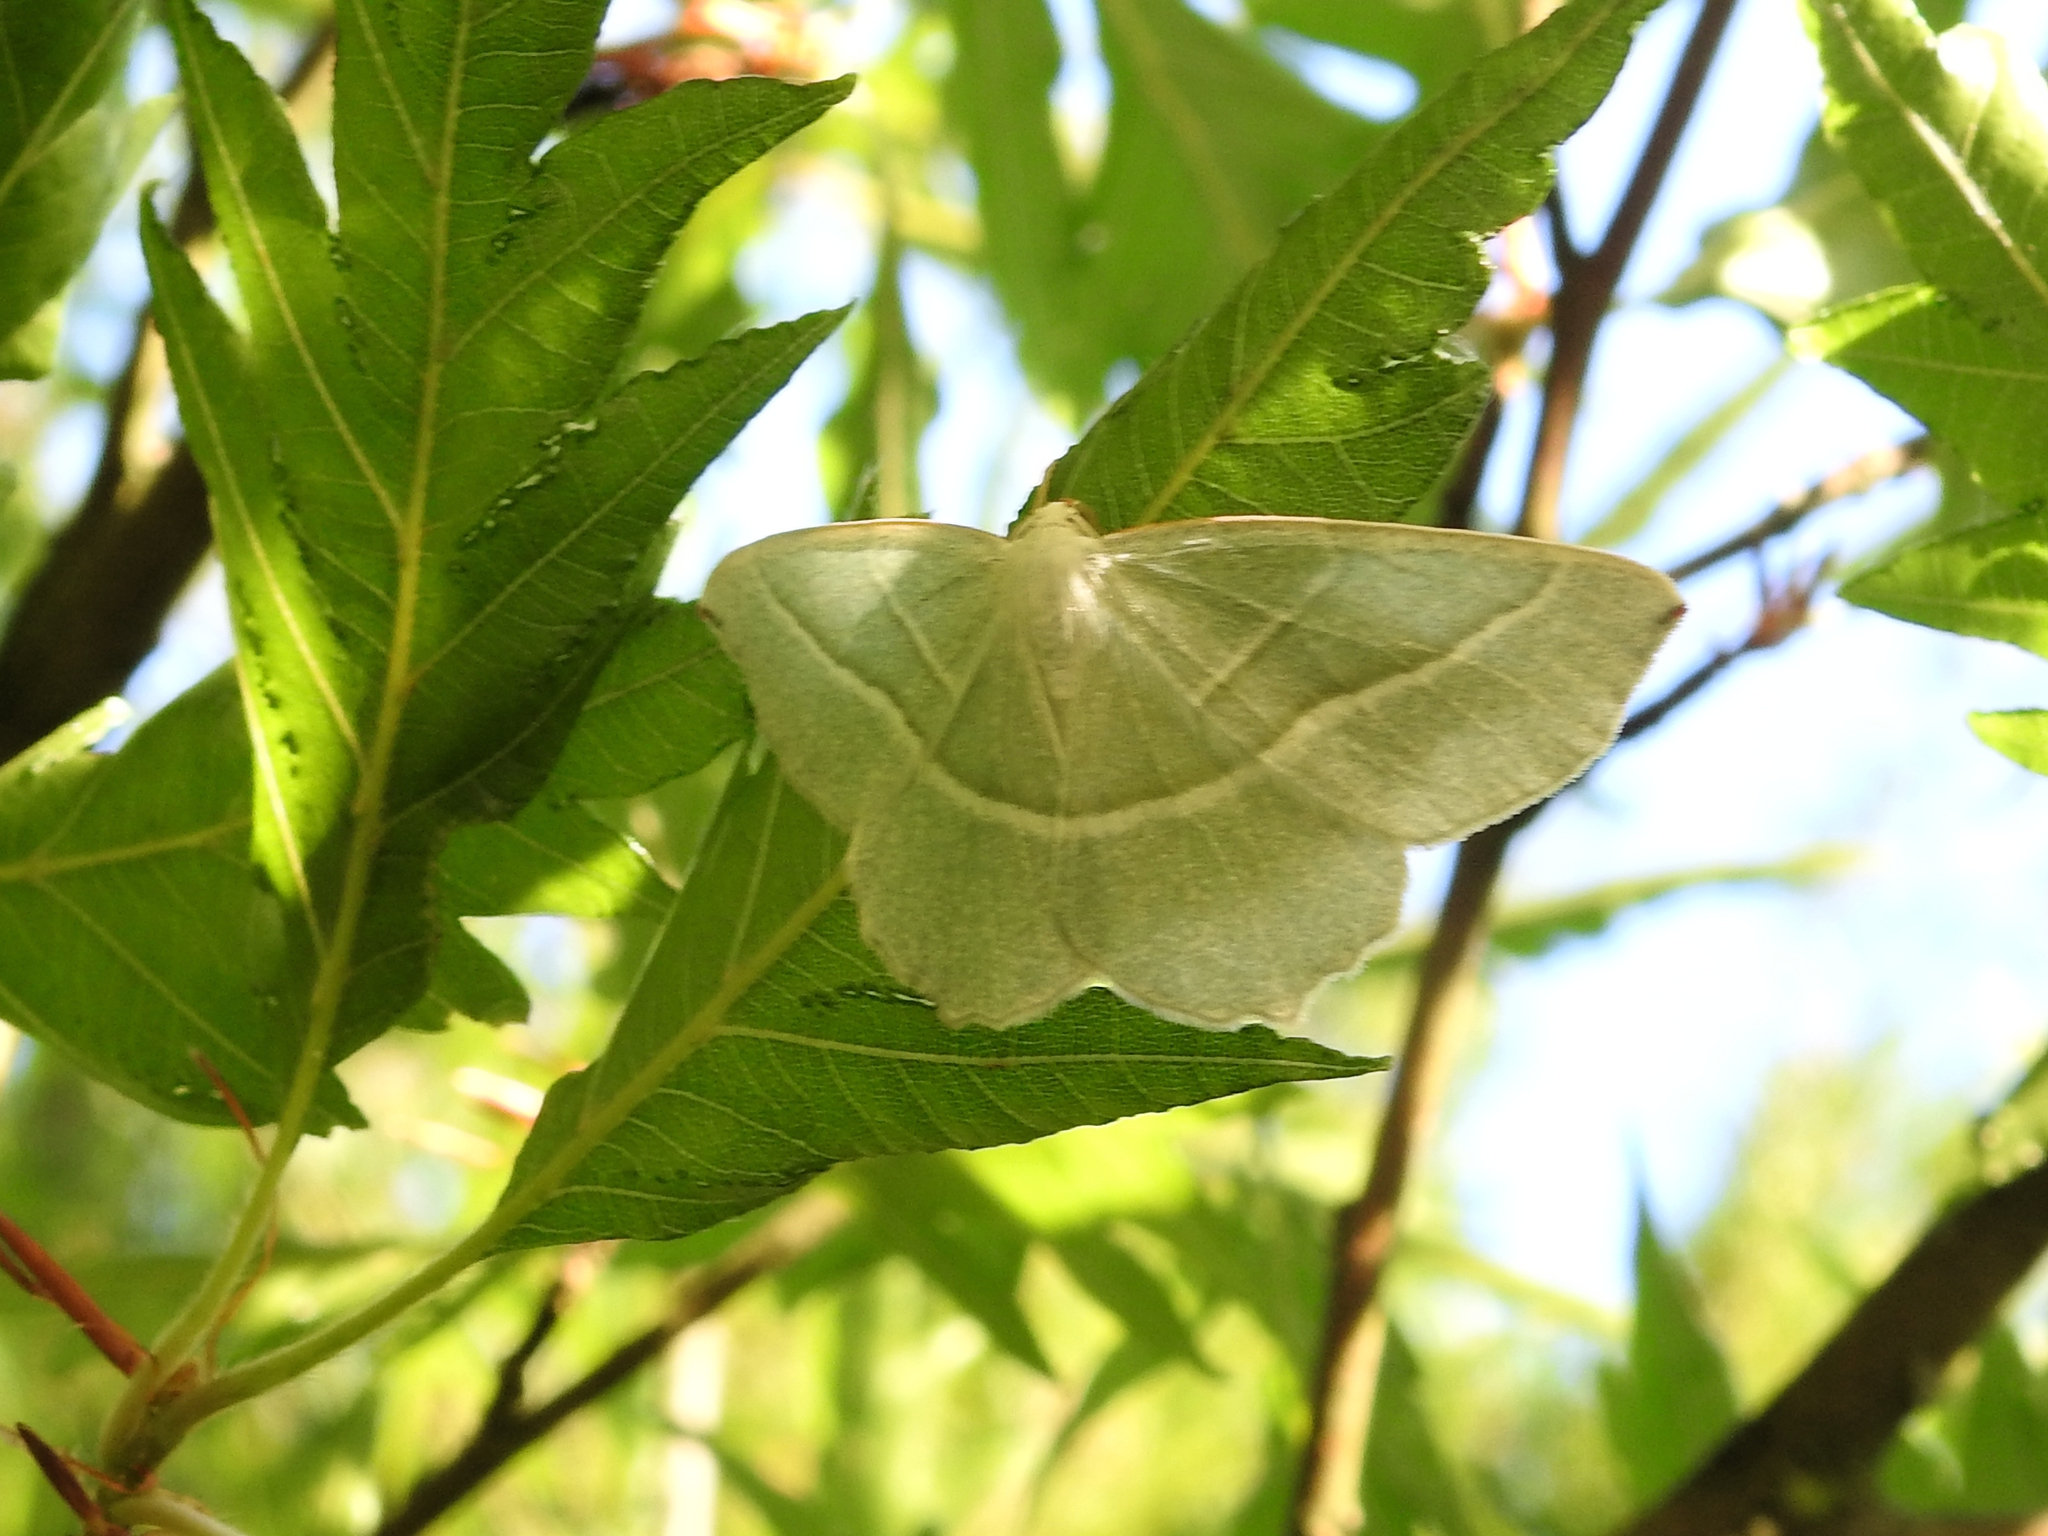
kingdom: Animalia
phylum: Arthropoda
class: Insecta
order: Lepidoptera
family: Geometridae
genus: Campaea
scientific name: Campaea margaritaria
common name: Light emerald
